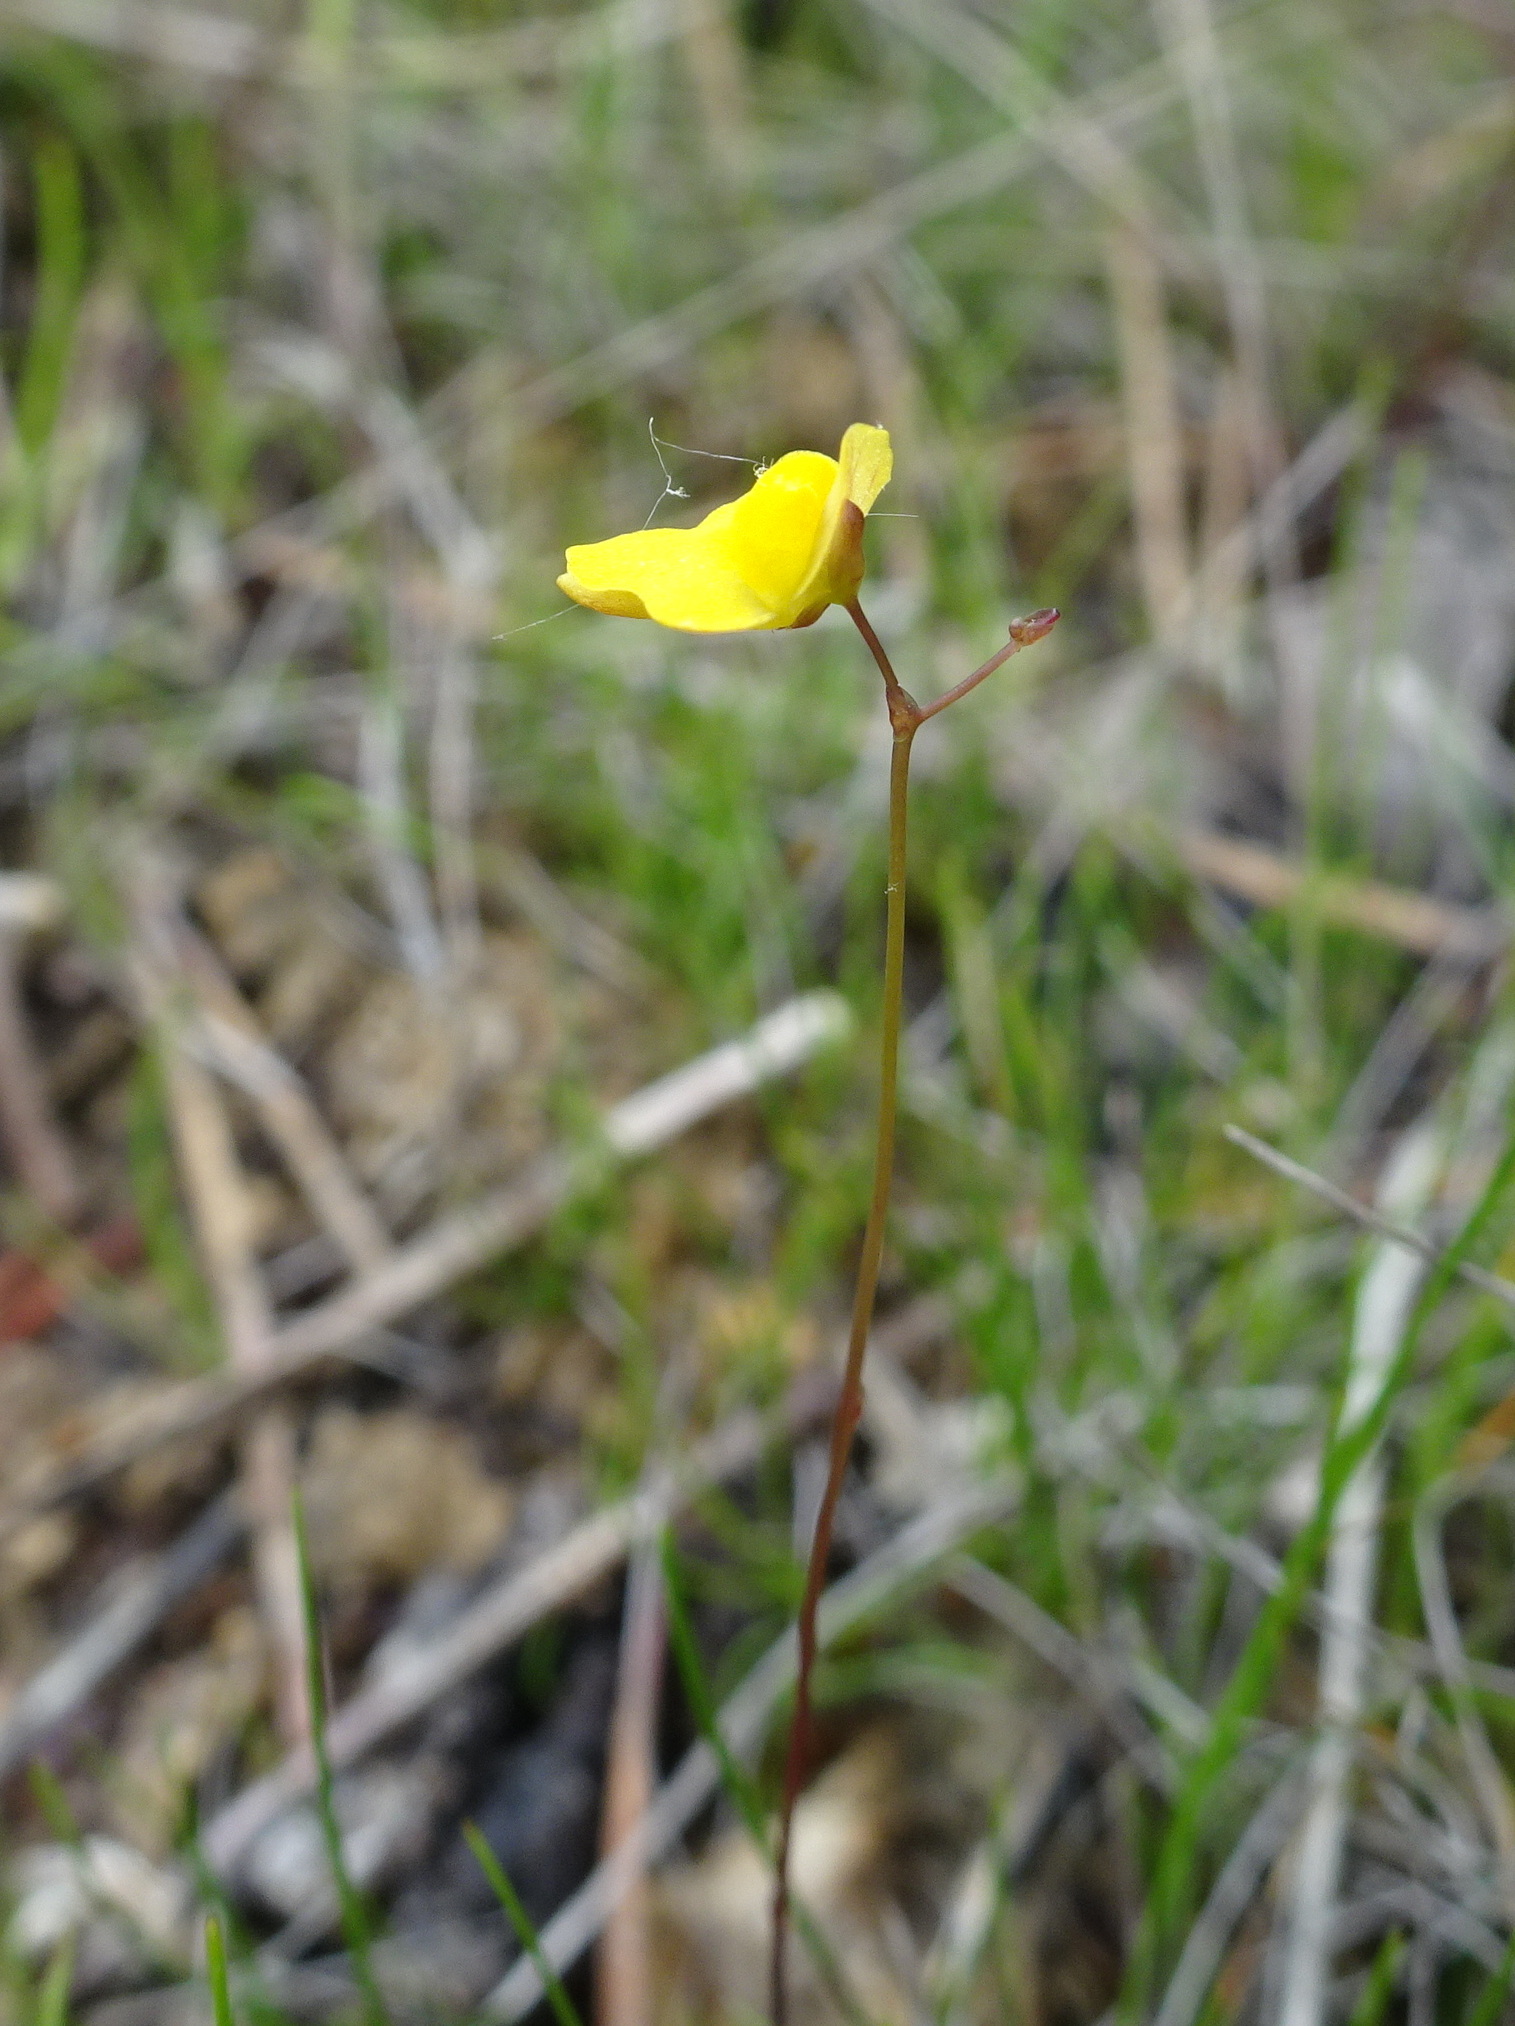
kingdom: Plantae
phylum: Tracheophyta
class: Magnoliopsida
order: Lamiales
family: Lentibulariaceae
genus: Utricularia
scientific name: Utricularia subulata
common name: Tiny bladderwort
